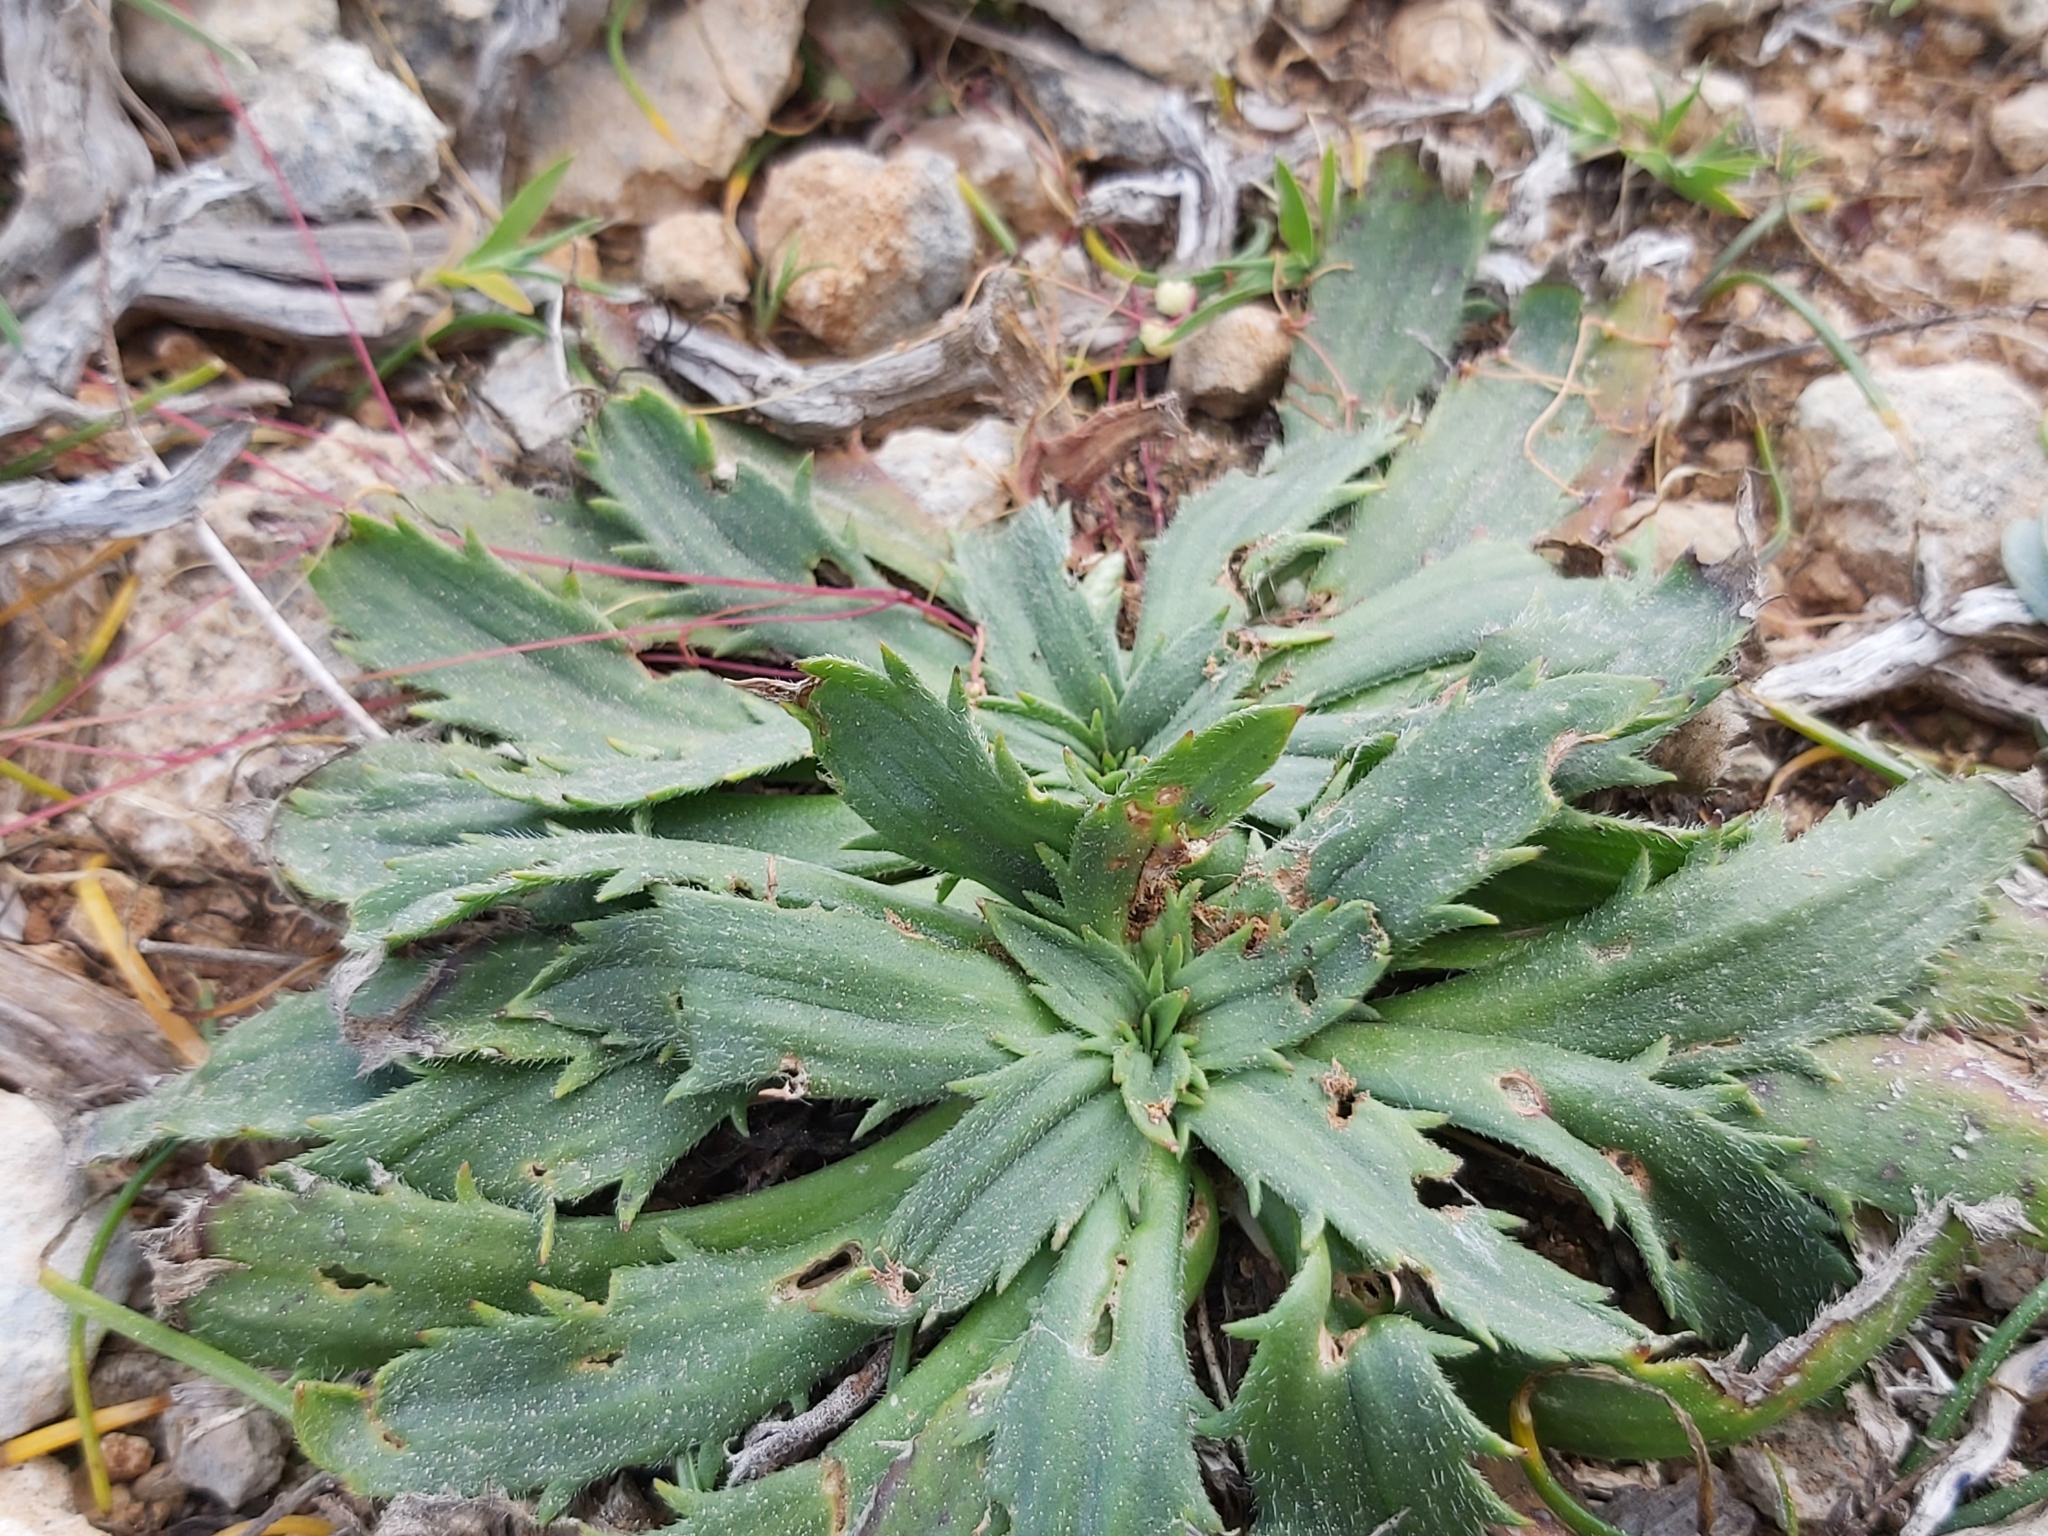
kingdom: Plantae
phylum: Tracheophyta
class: Magnoliopsida
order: Lamiales
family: Plantaginaceae
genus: Plantago
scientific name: Plantago serraria
